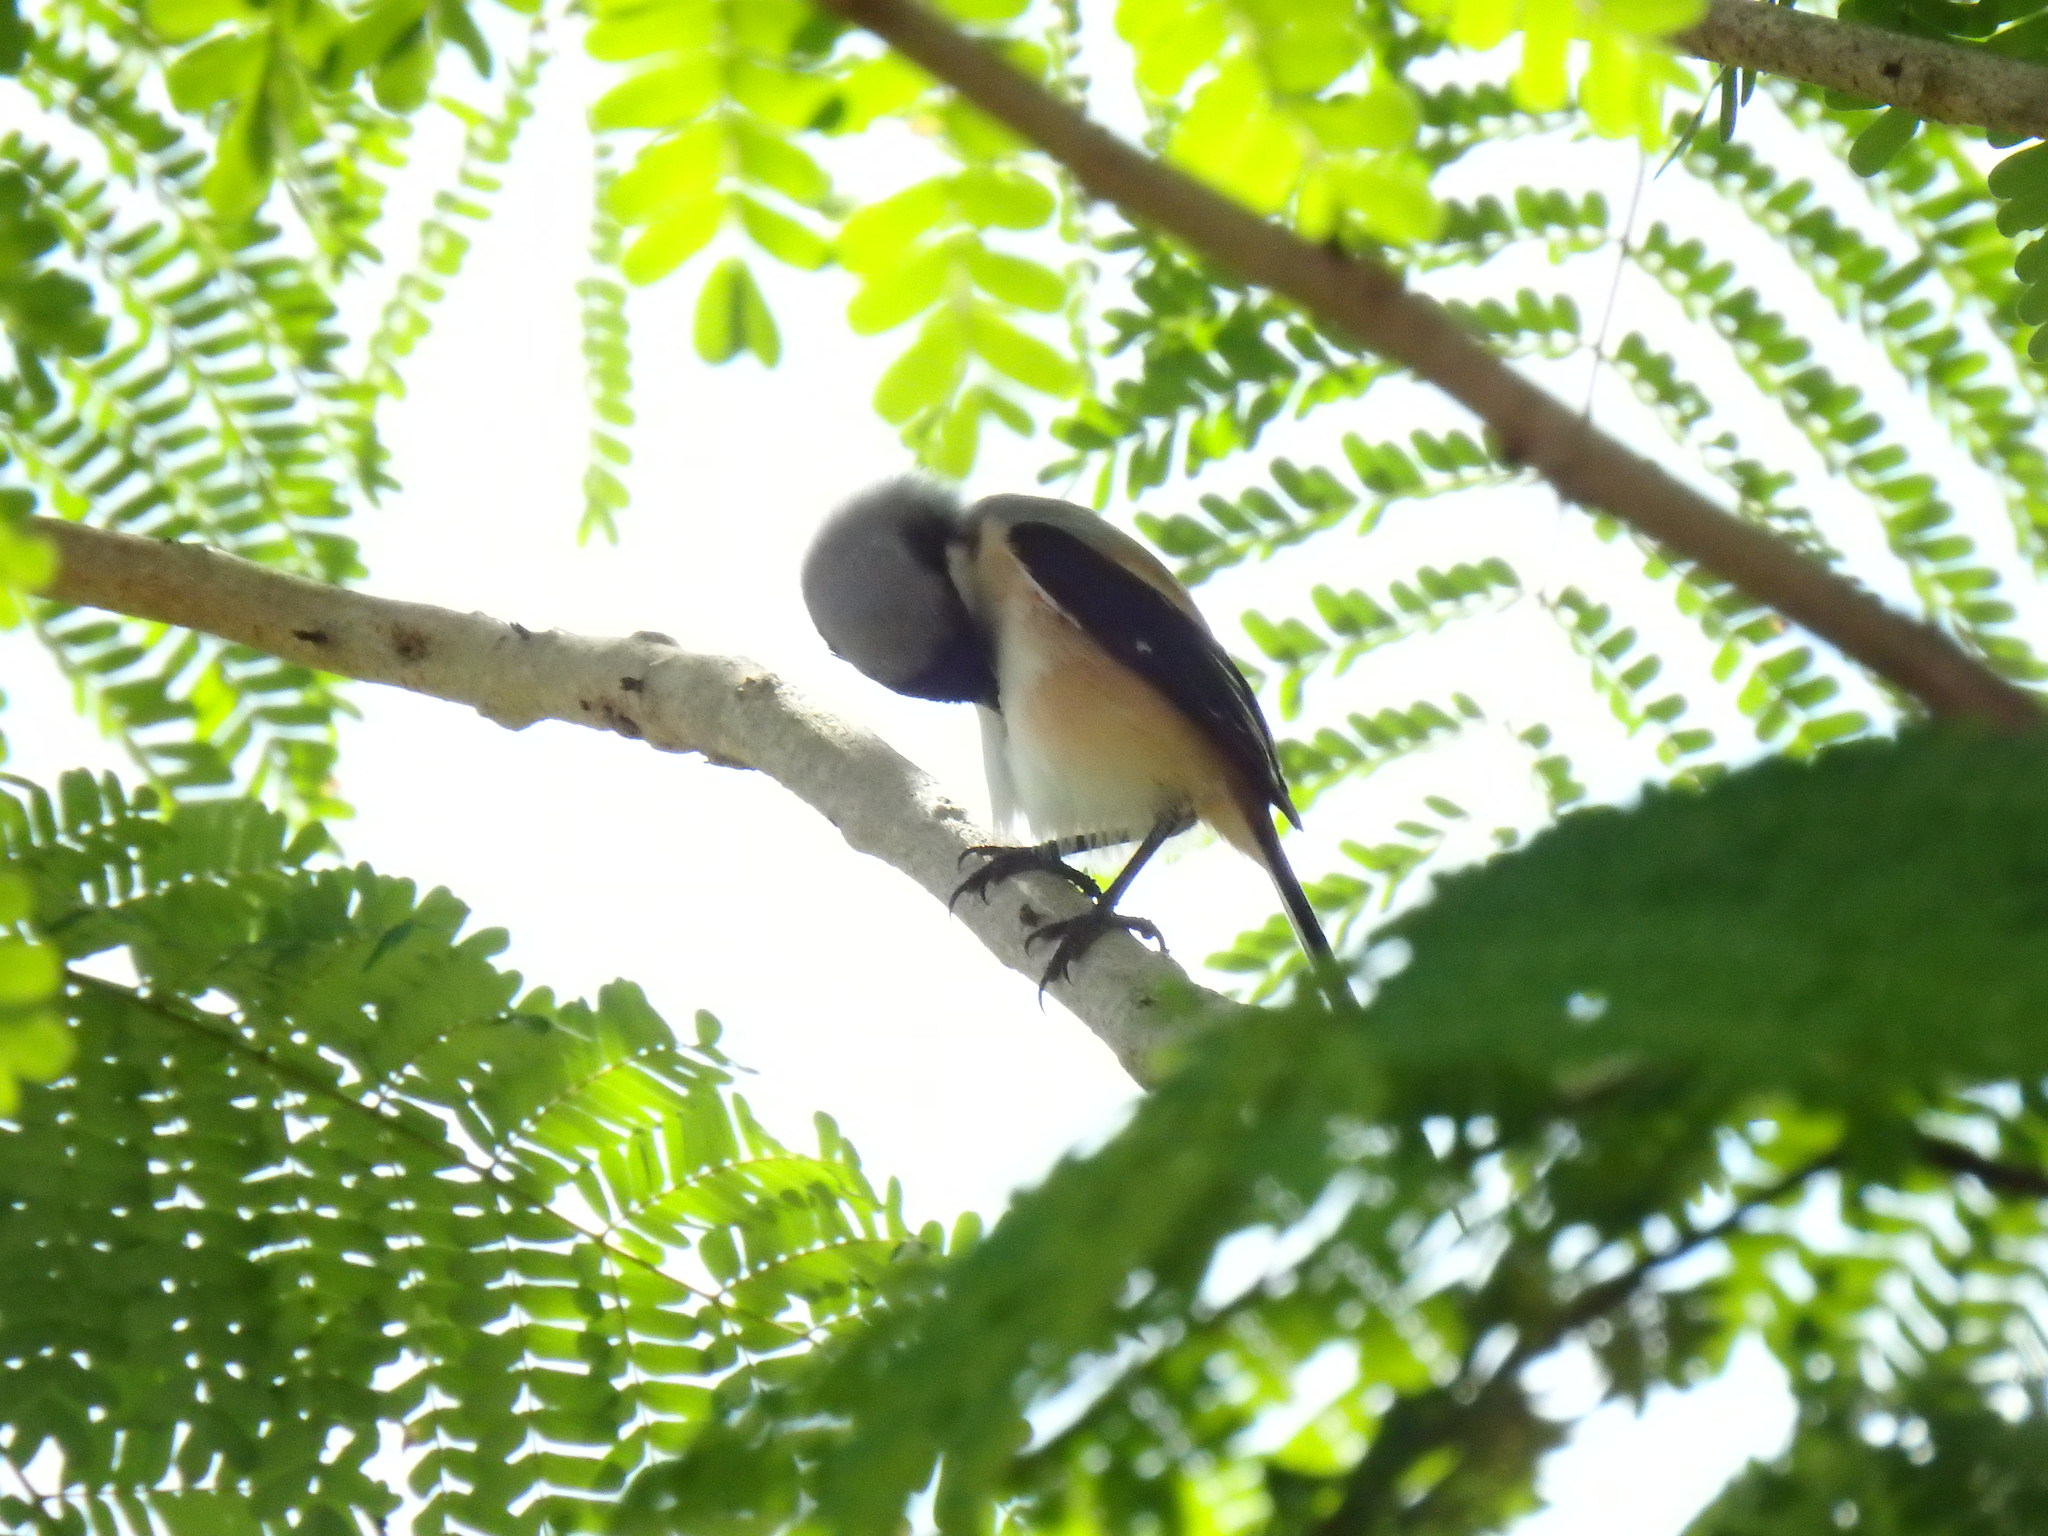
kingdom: Animalia
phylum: Chordata
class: Aves
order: Passeriformes
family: Laniidae
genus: Lanius
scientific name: Lanius schach
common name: Long-tailed shrike
